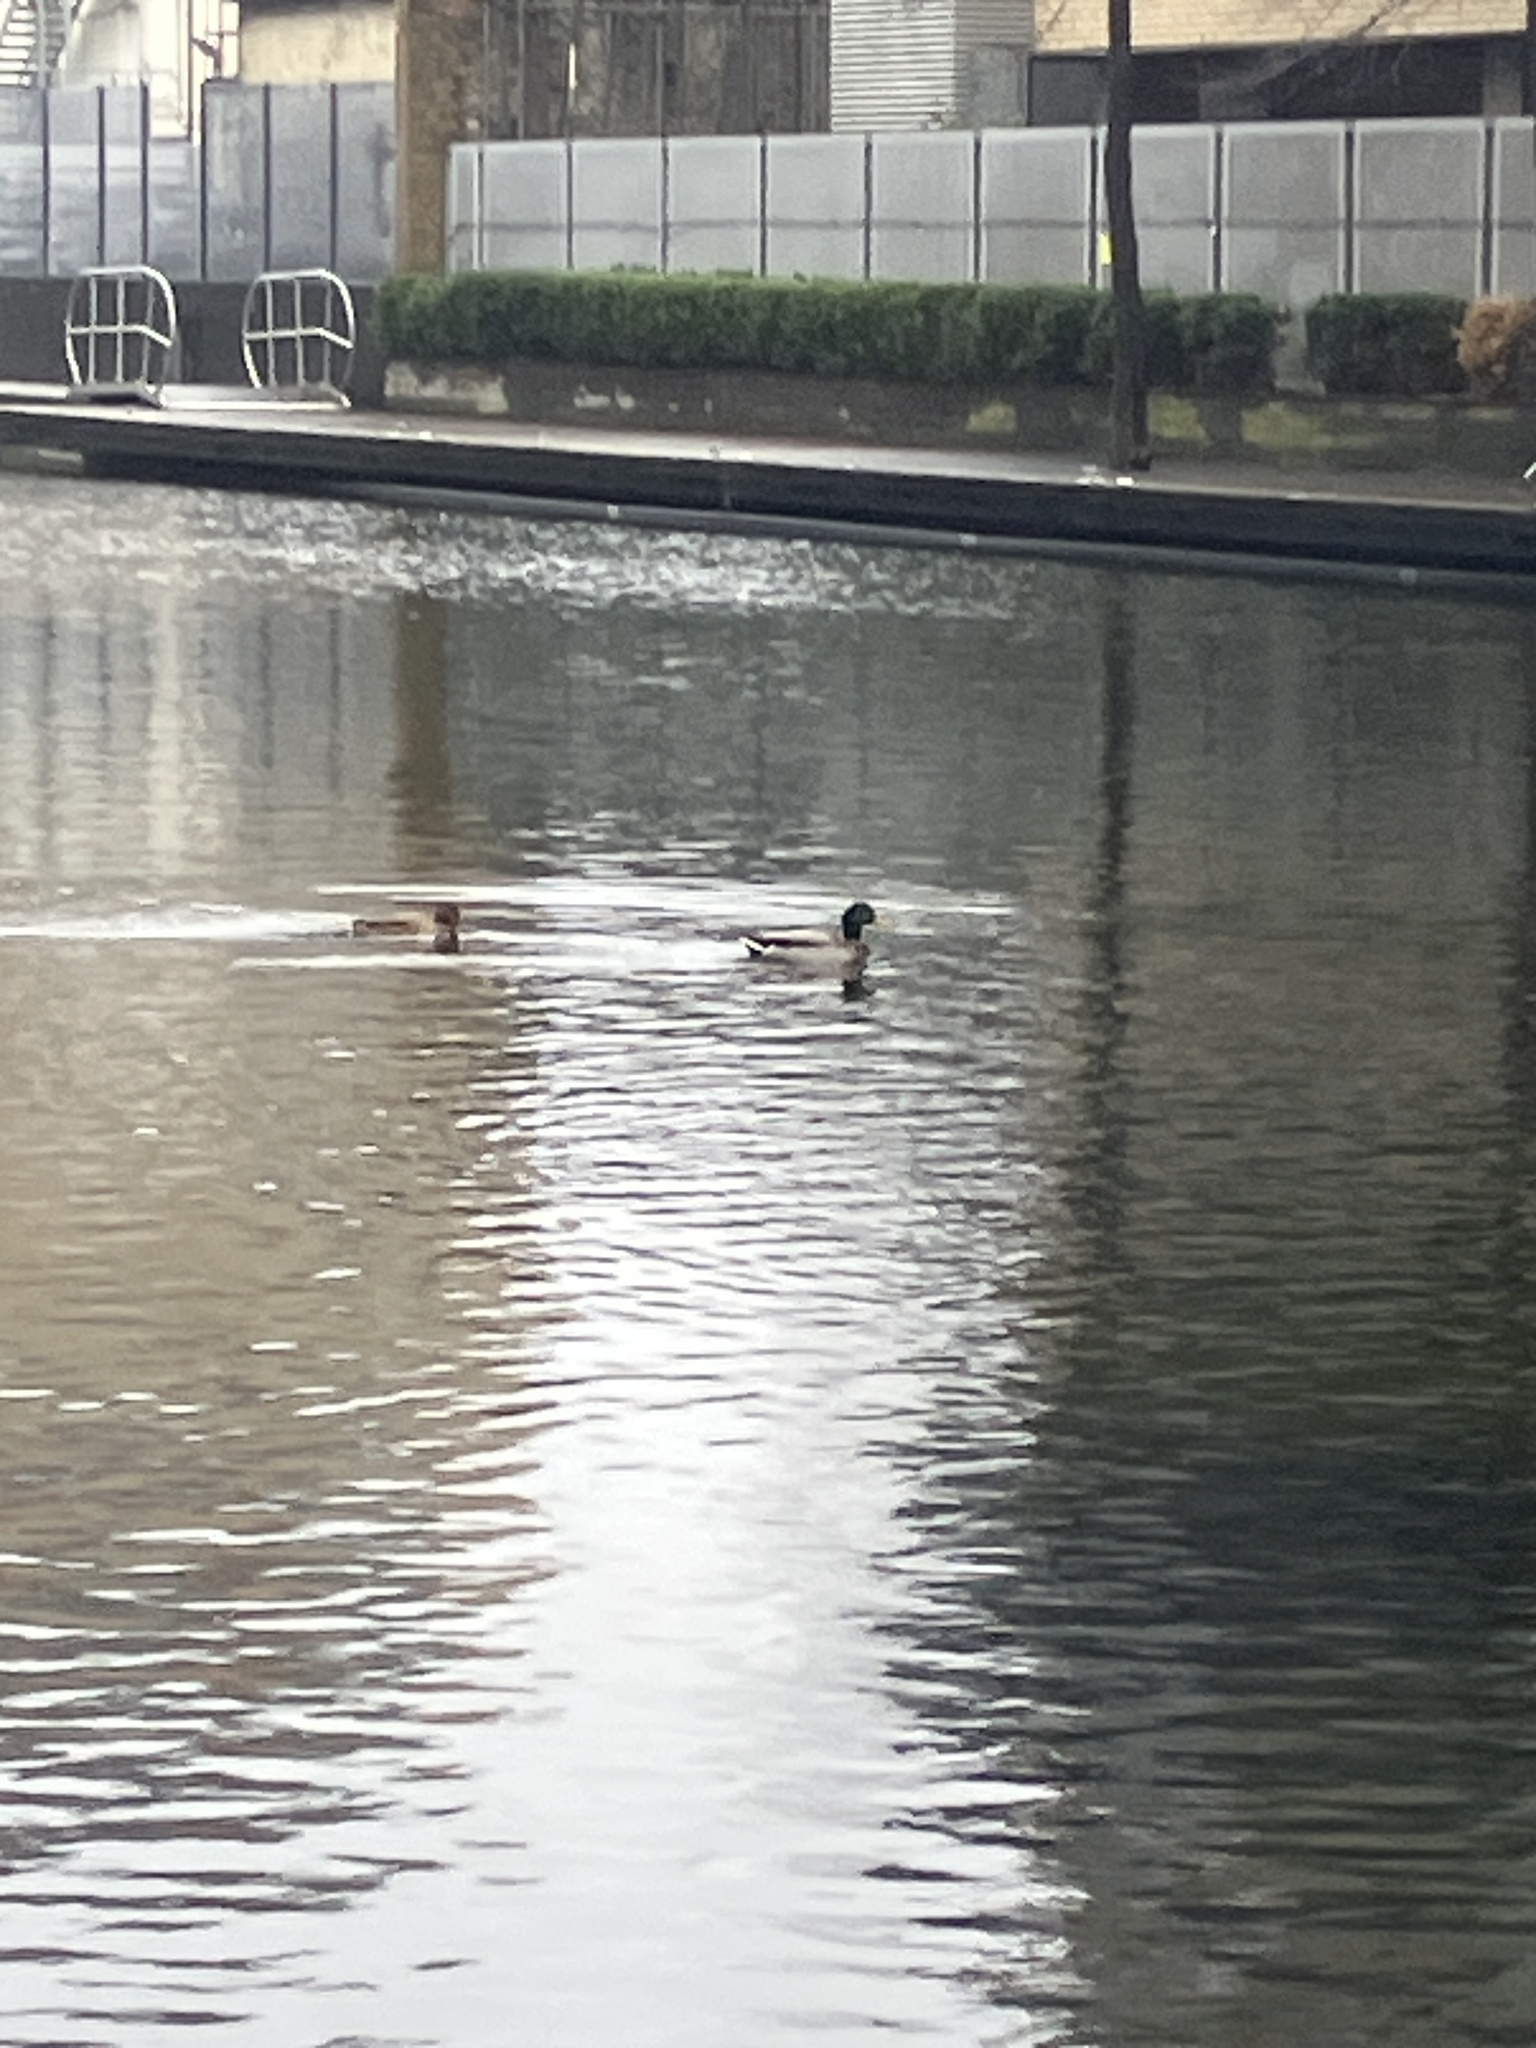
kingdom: Animalia
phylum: Chordata
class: Aves
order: Anseriformes
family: Anatidae
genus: Anas
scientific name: Anas platyrhynchos
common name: Mallard
